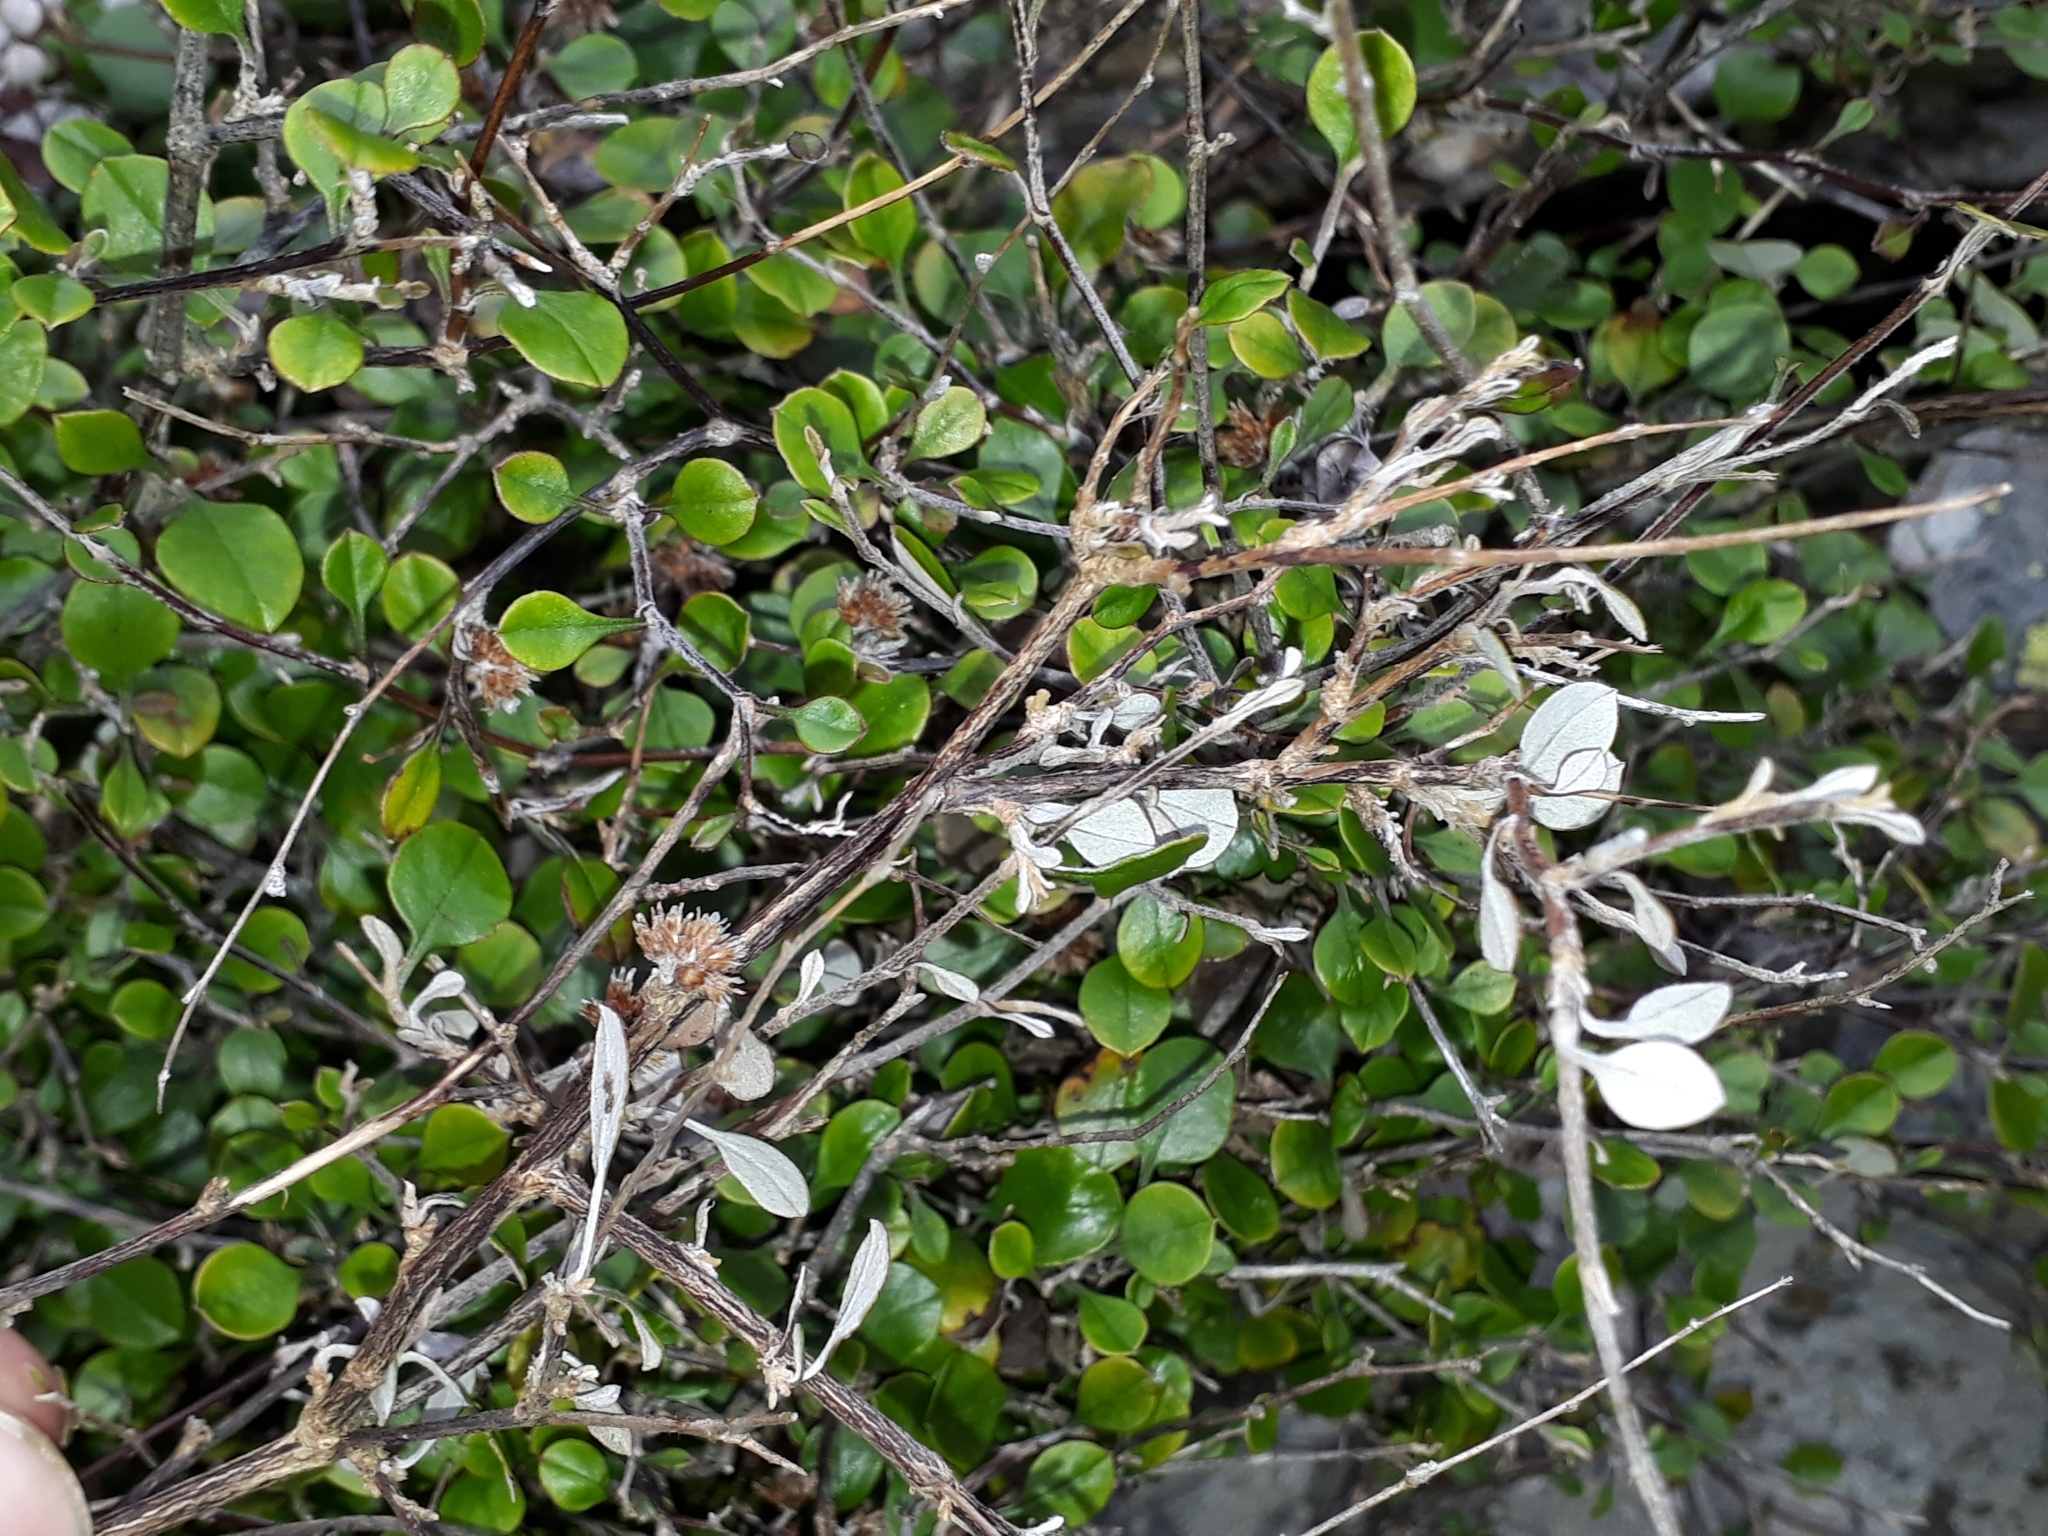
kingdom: Plantae
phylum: Tracheophyta
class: Magnoliopsida
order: Asterales
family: Asteraceae
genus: Ozothamnus
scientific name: Ozothamnus glomeratus
